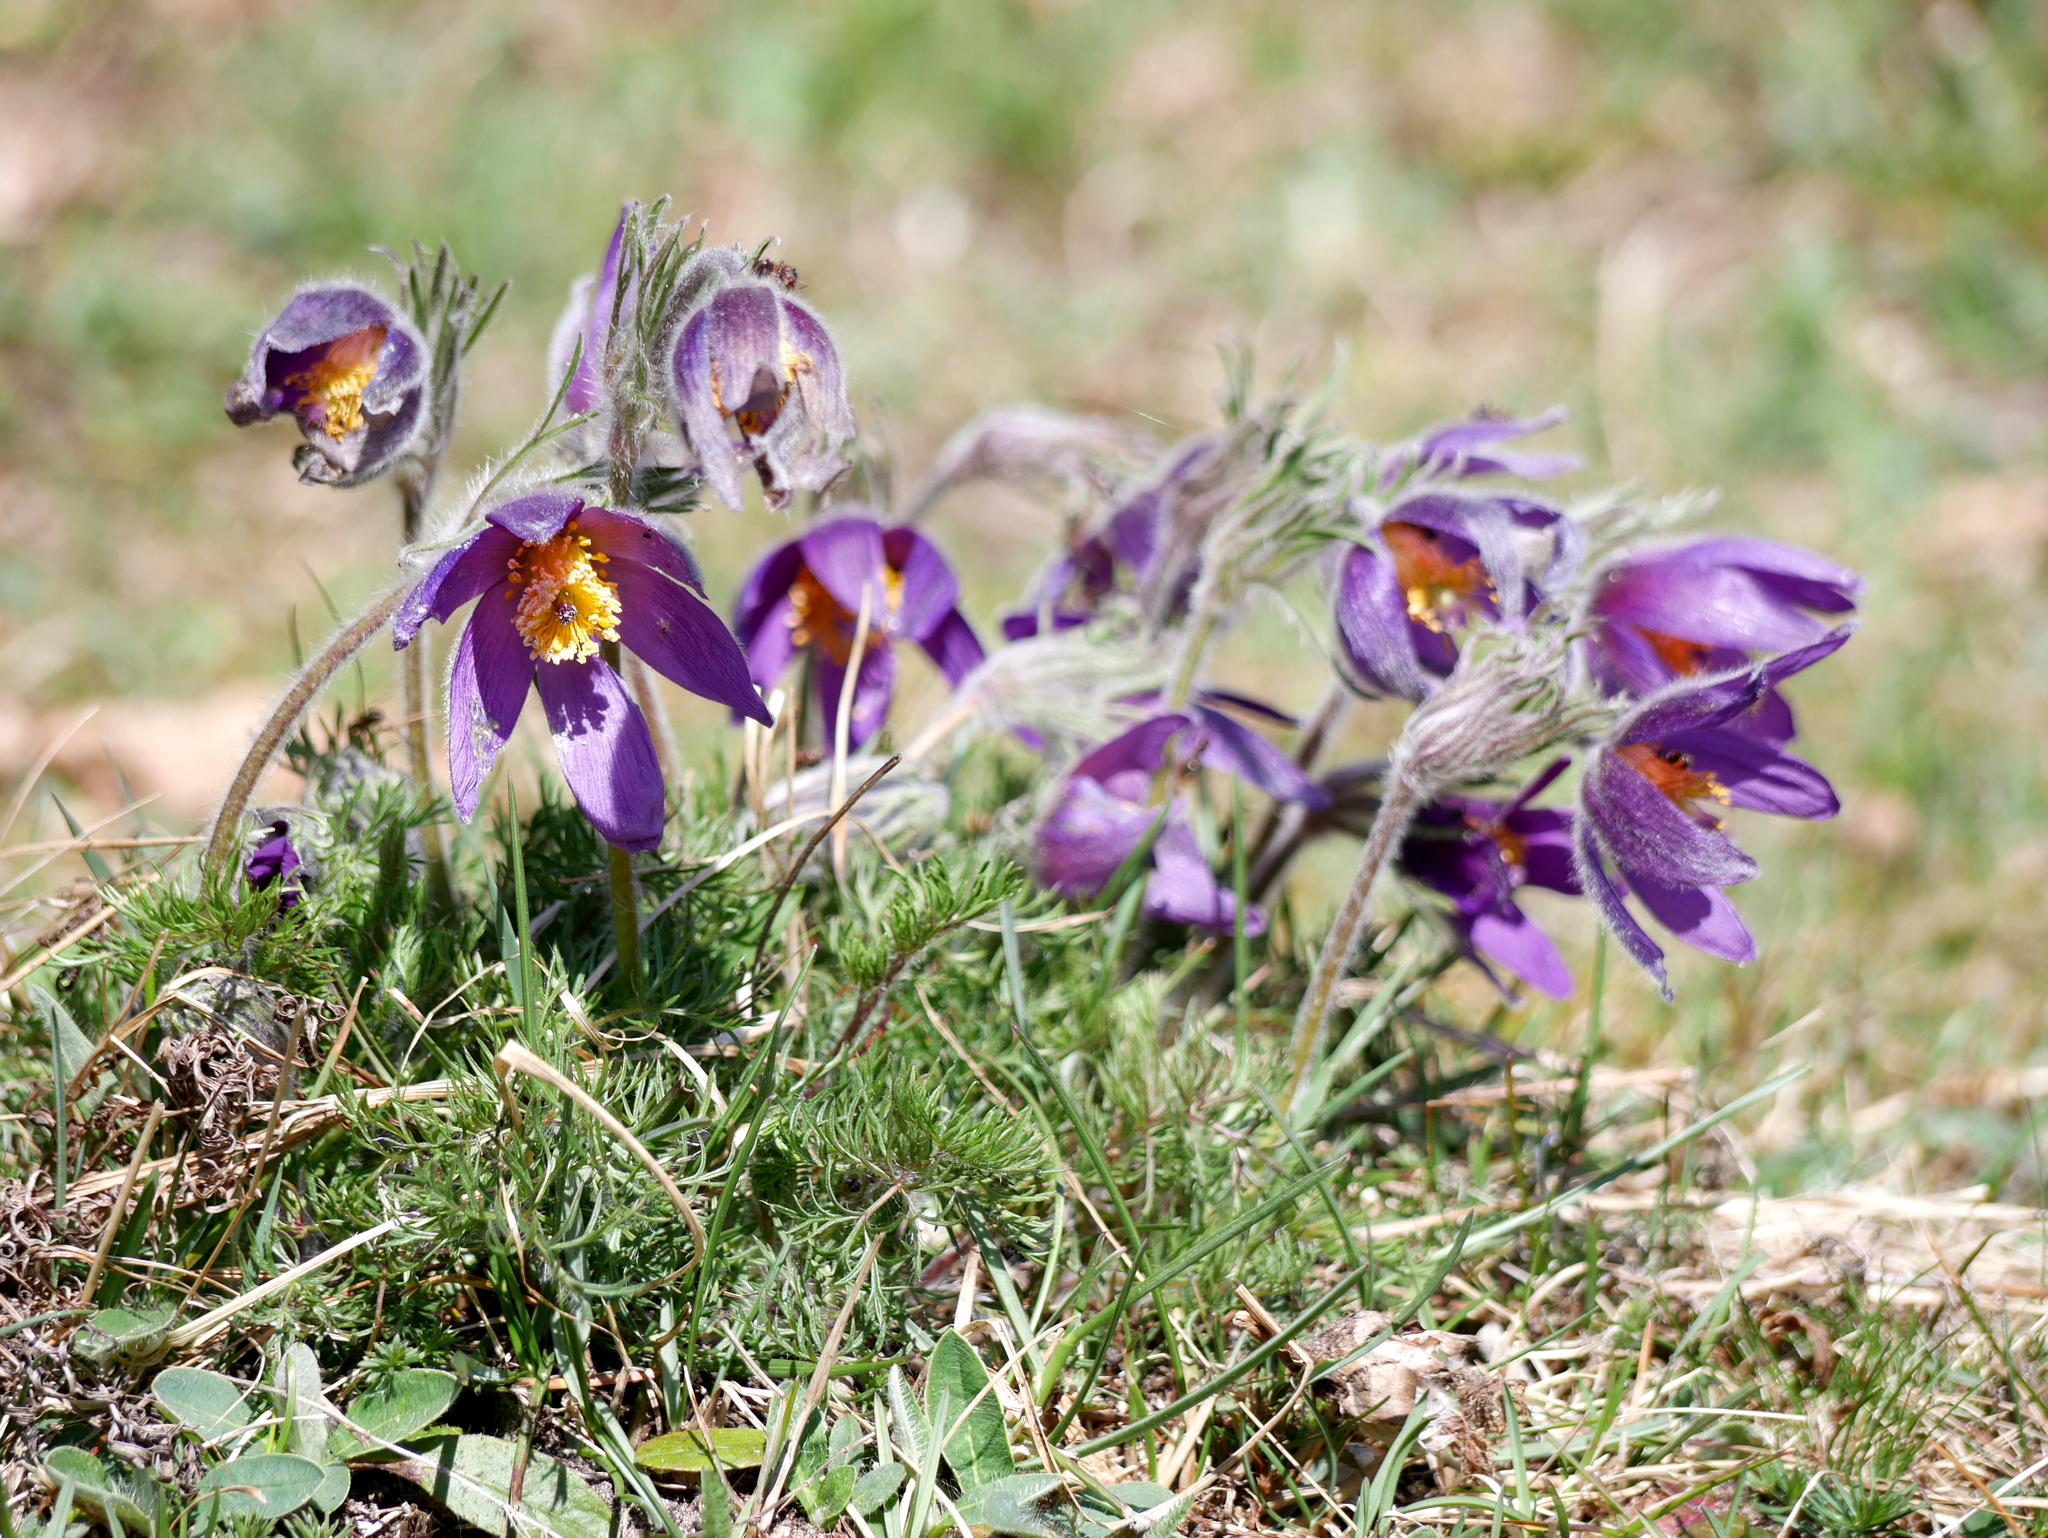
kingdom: Plantae
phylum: Tracheophyta
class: Magnoliopsida
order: Ranunculales
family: Ranunculaceae
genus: Pulsatilla
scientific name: Pulsatilla vulgaris
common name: Pasqueflower
